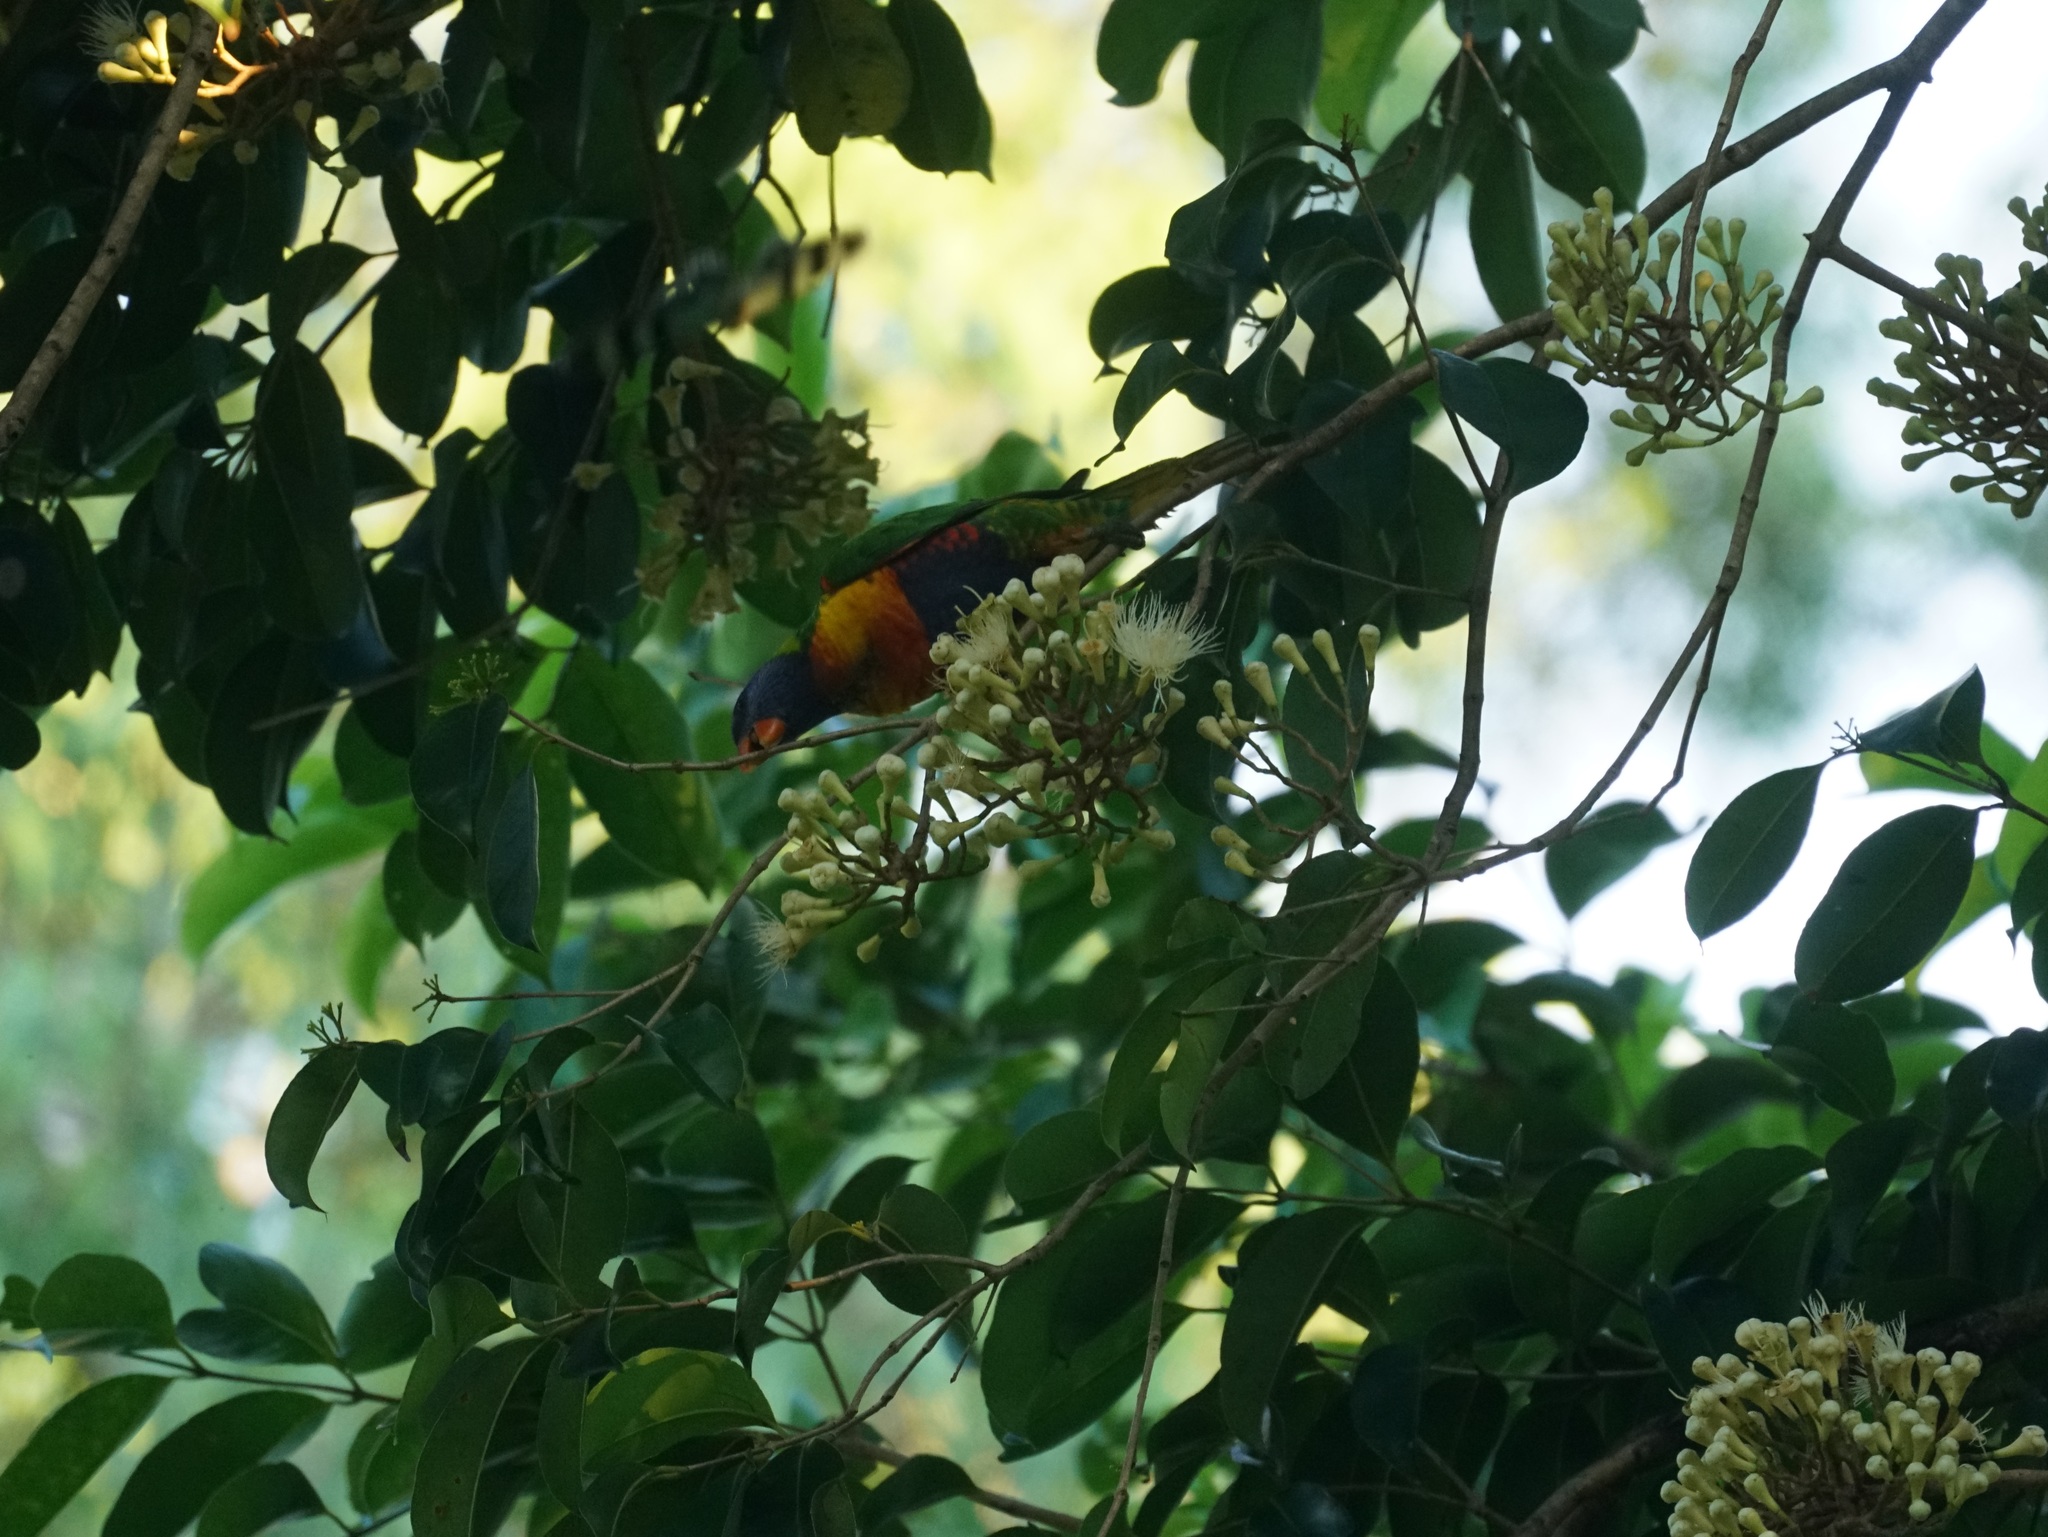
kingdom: Animalia
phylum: Chordata
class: Aves
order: Psittaciformes
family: Psittacidae
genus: Trichoglossus
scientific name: Trichoglossus haematodus
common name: Coconut lorikeet
